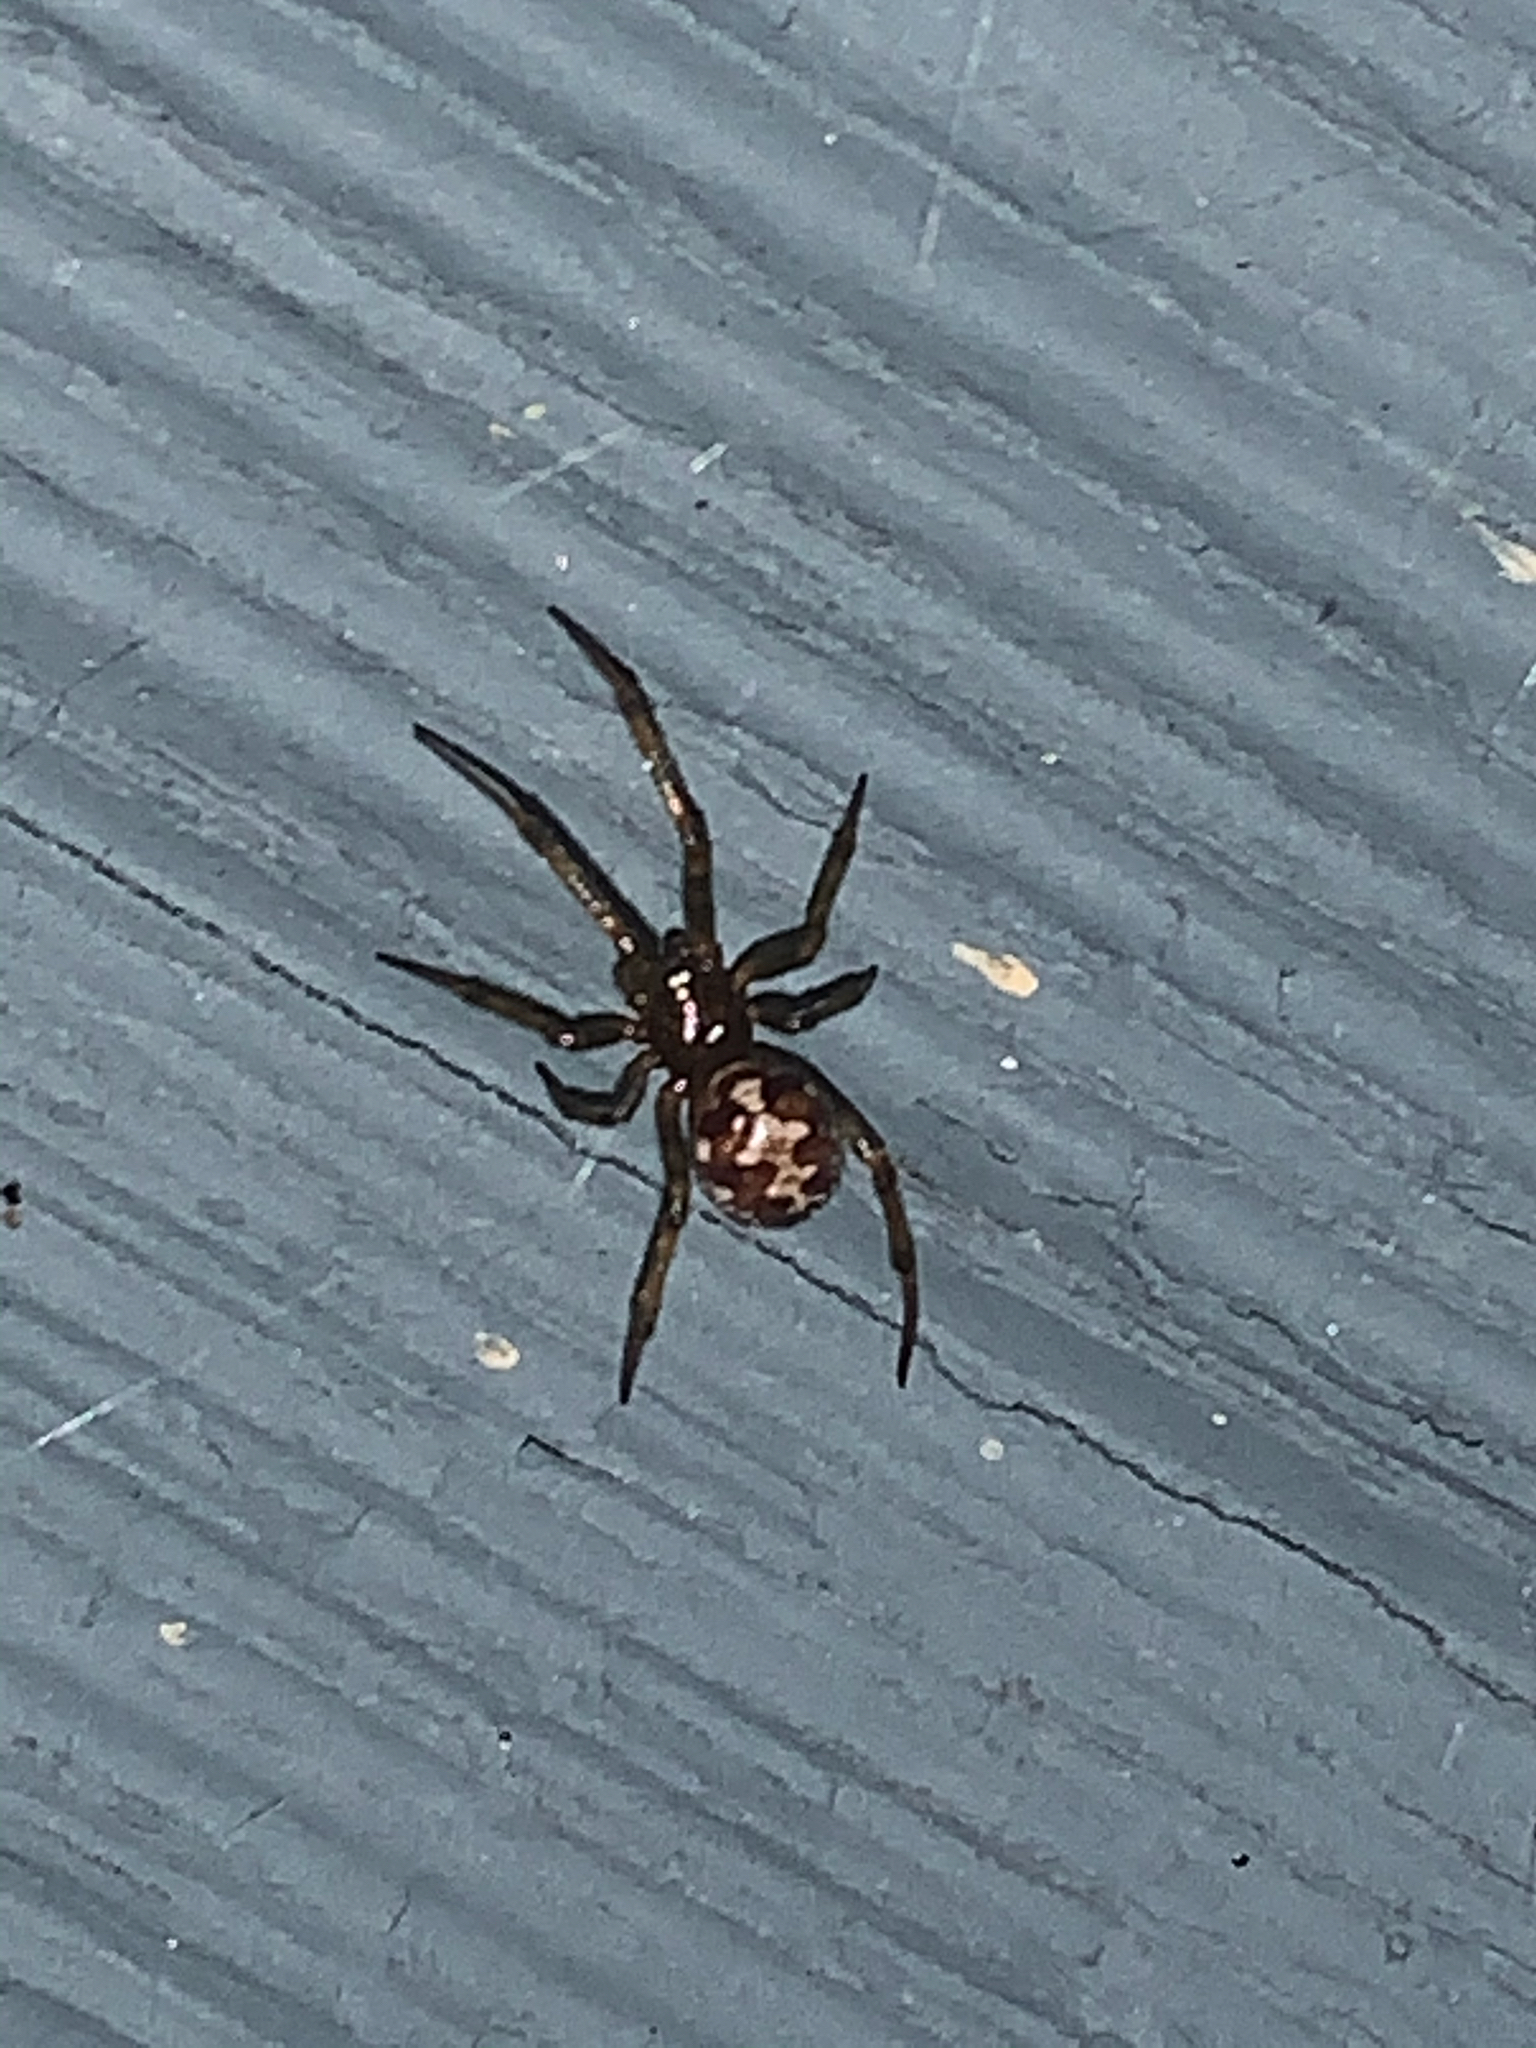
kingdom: Animalia
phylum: Arthropoda
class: Arachnida
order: Araneae
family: Theridiidae
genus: Steatoda
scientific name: Steatoda triangulosa
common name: Triangulate bud spider
